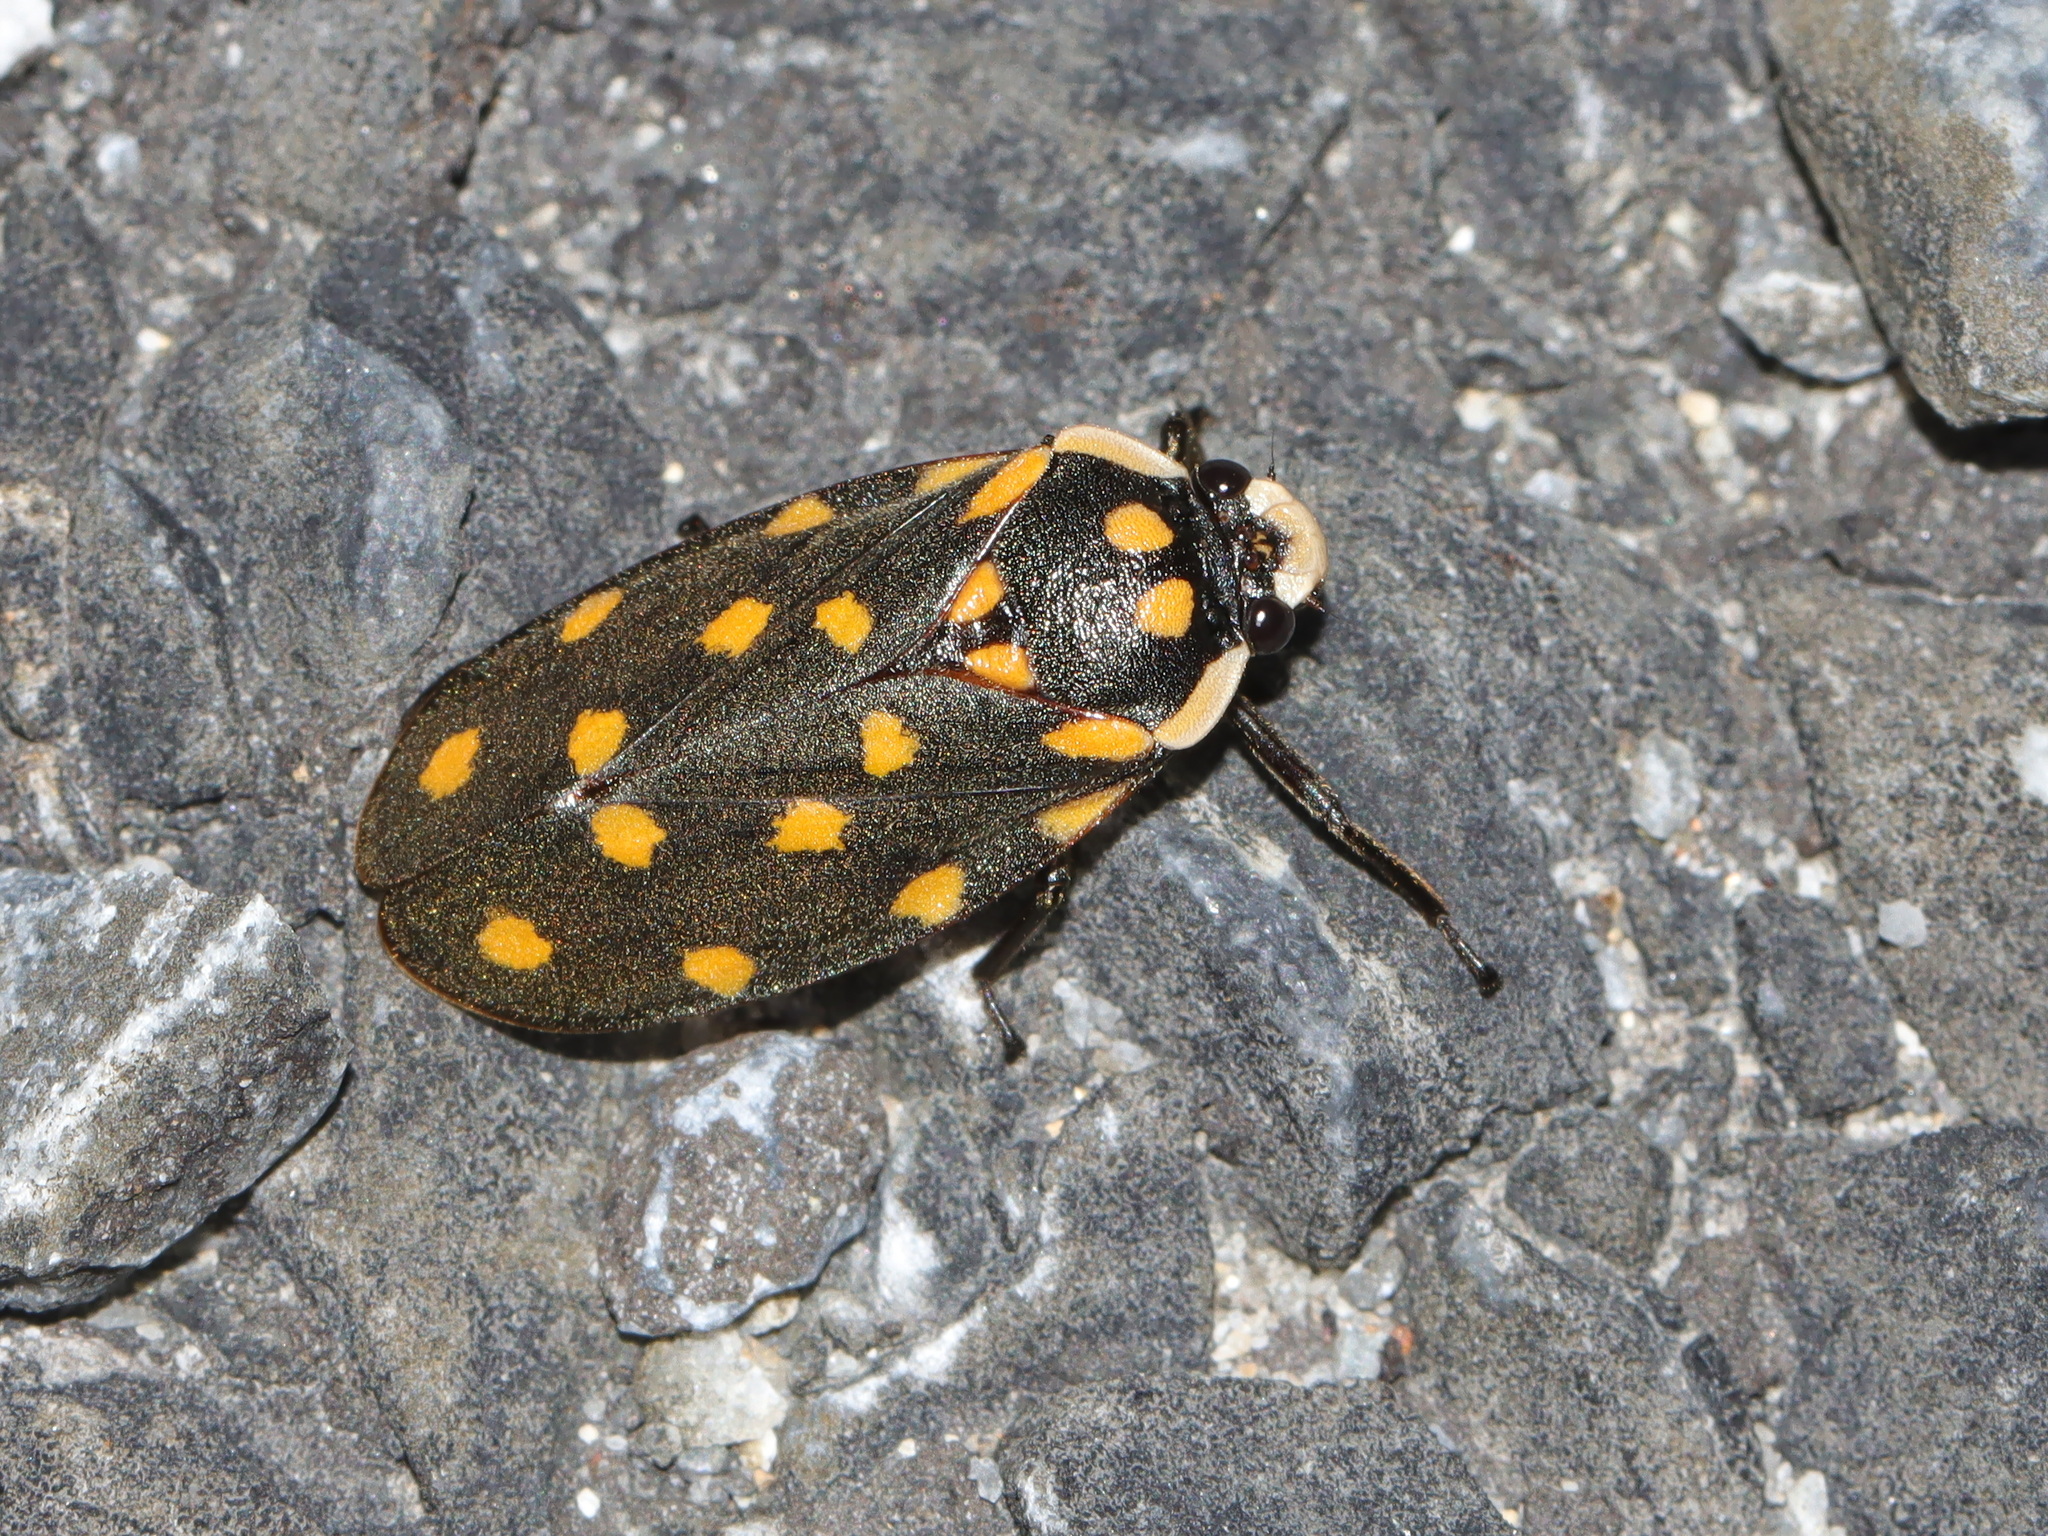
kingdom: Animalia
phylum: Arthropoda
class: Insecta
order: Hemiptera
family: Cercopidae
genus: Phymatostetha
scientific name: Phymatostetha stellata
